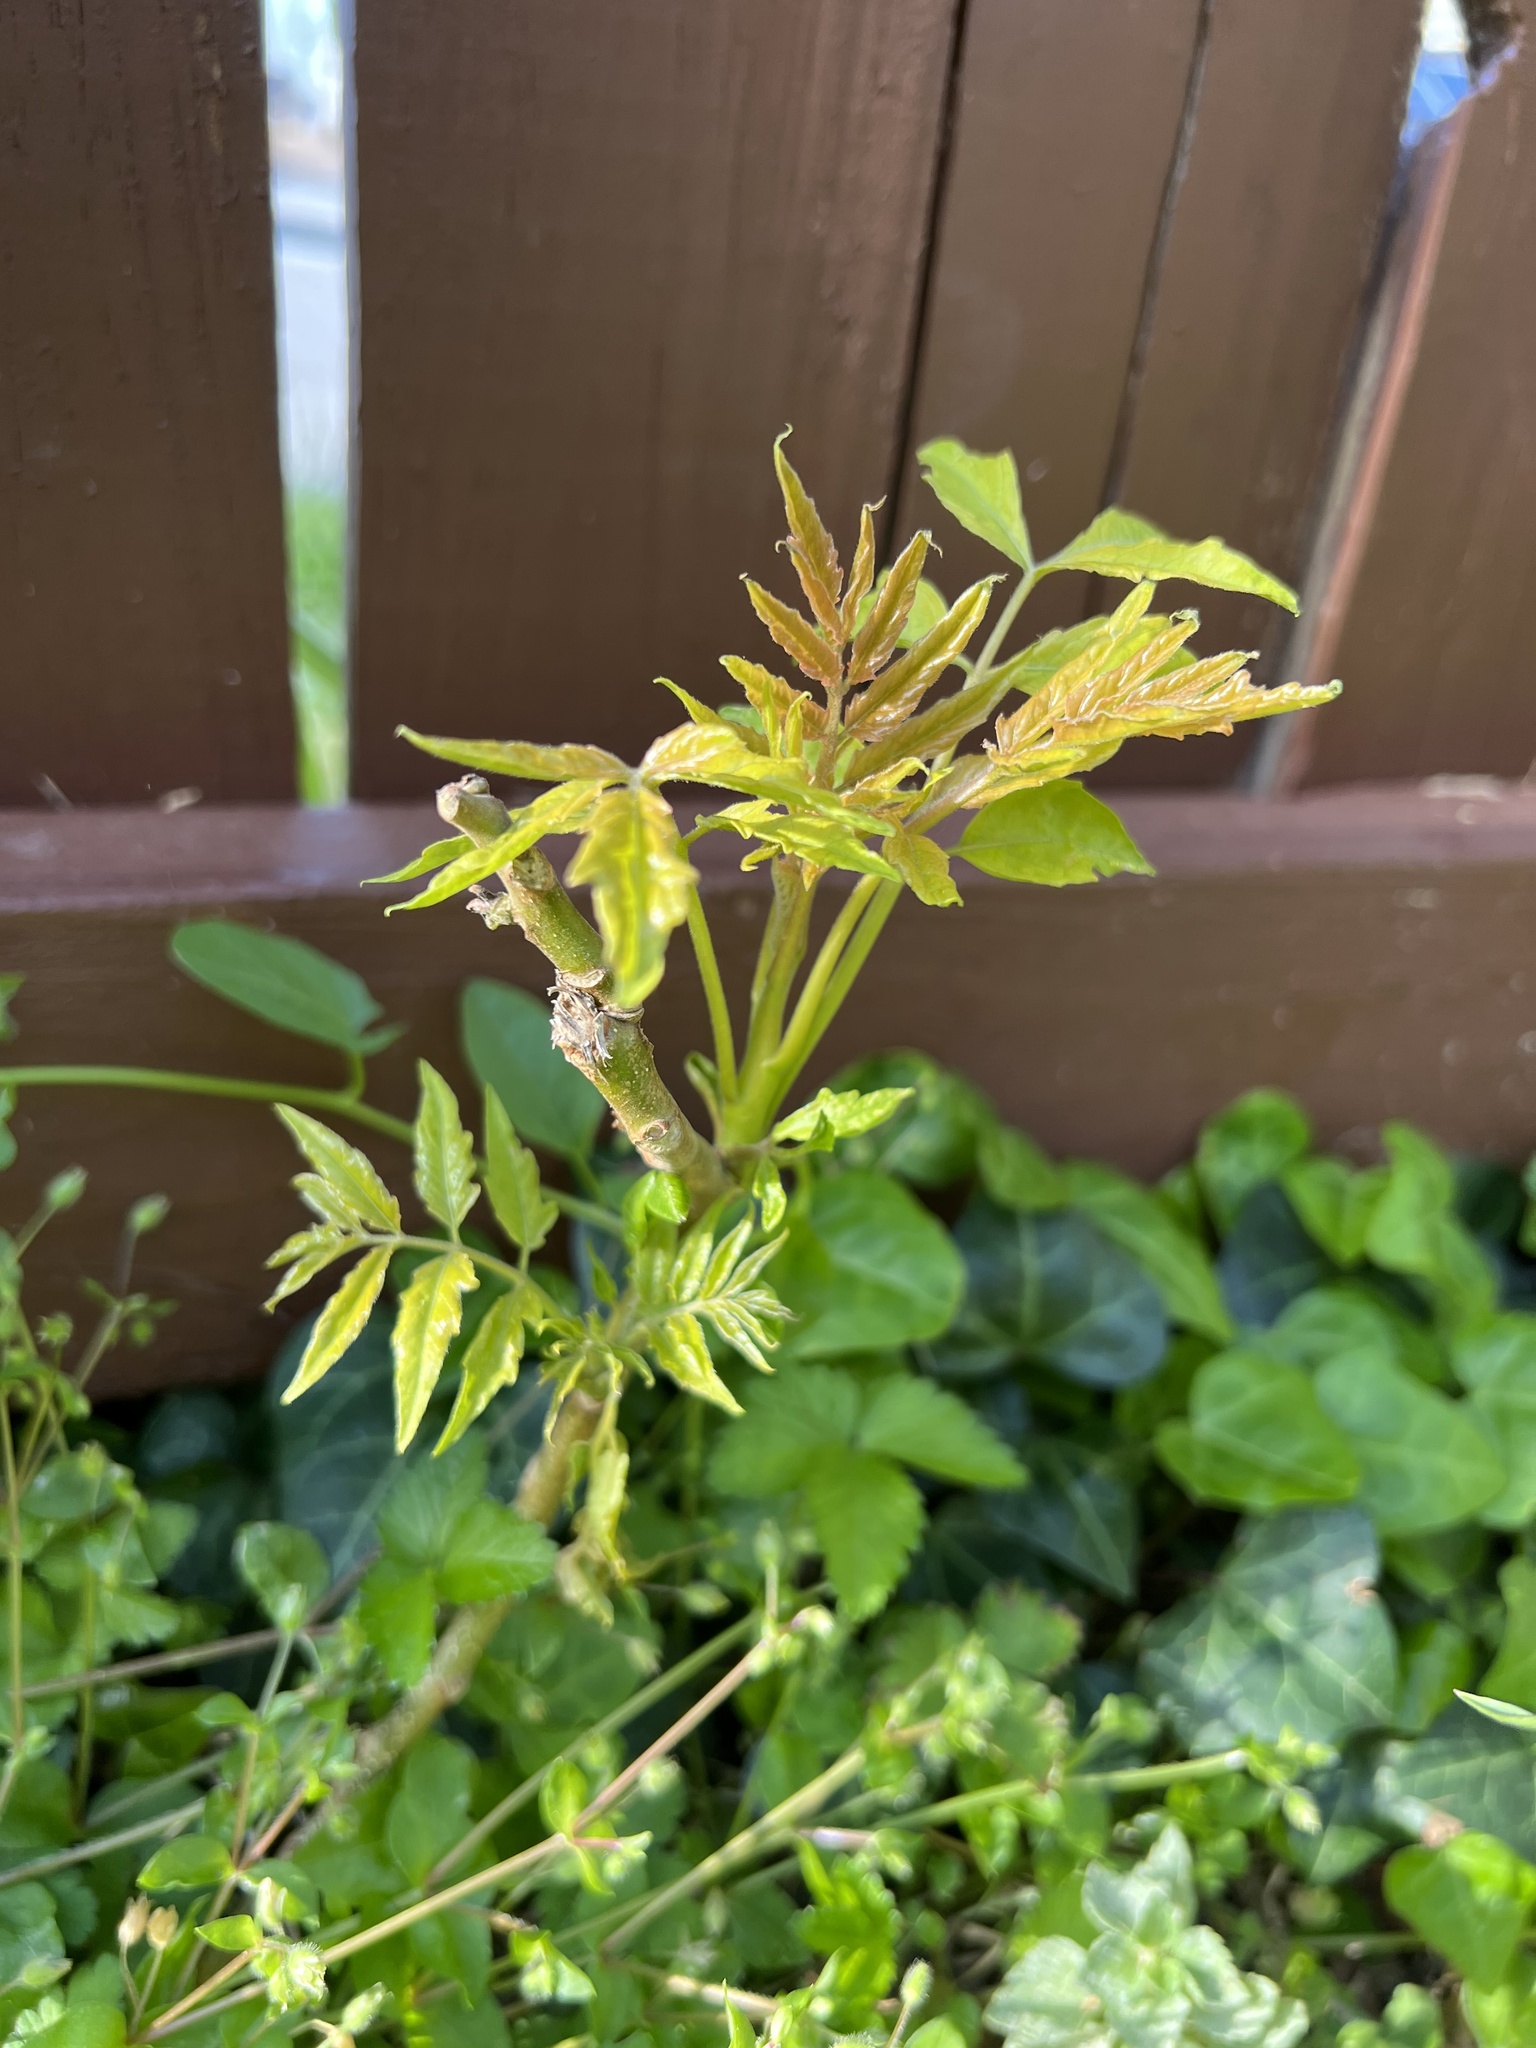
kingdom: Plantae
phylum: Tracheophyta
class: Magnoliopsida
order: Sapindales
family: Simaroubaceae
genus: Ailanthus
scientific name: Ailanthus altissima
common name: Tree-of-heaven
